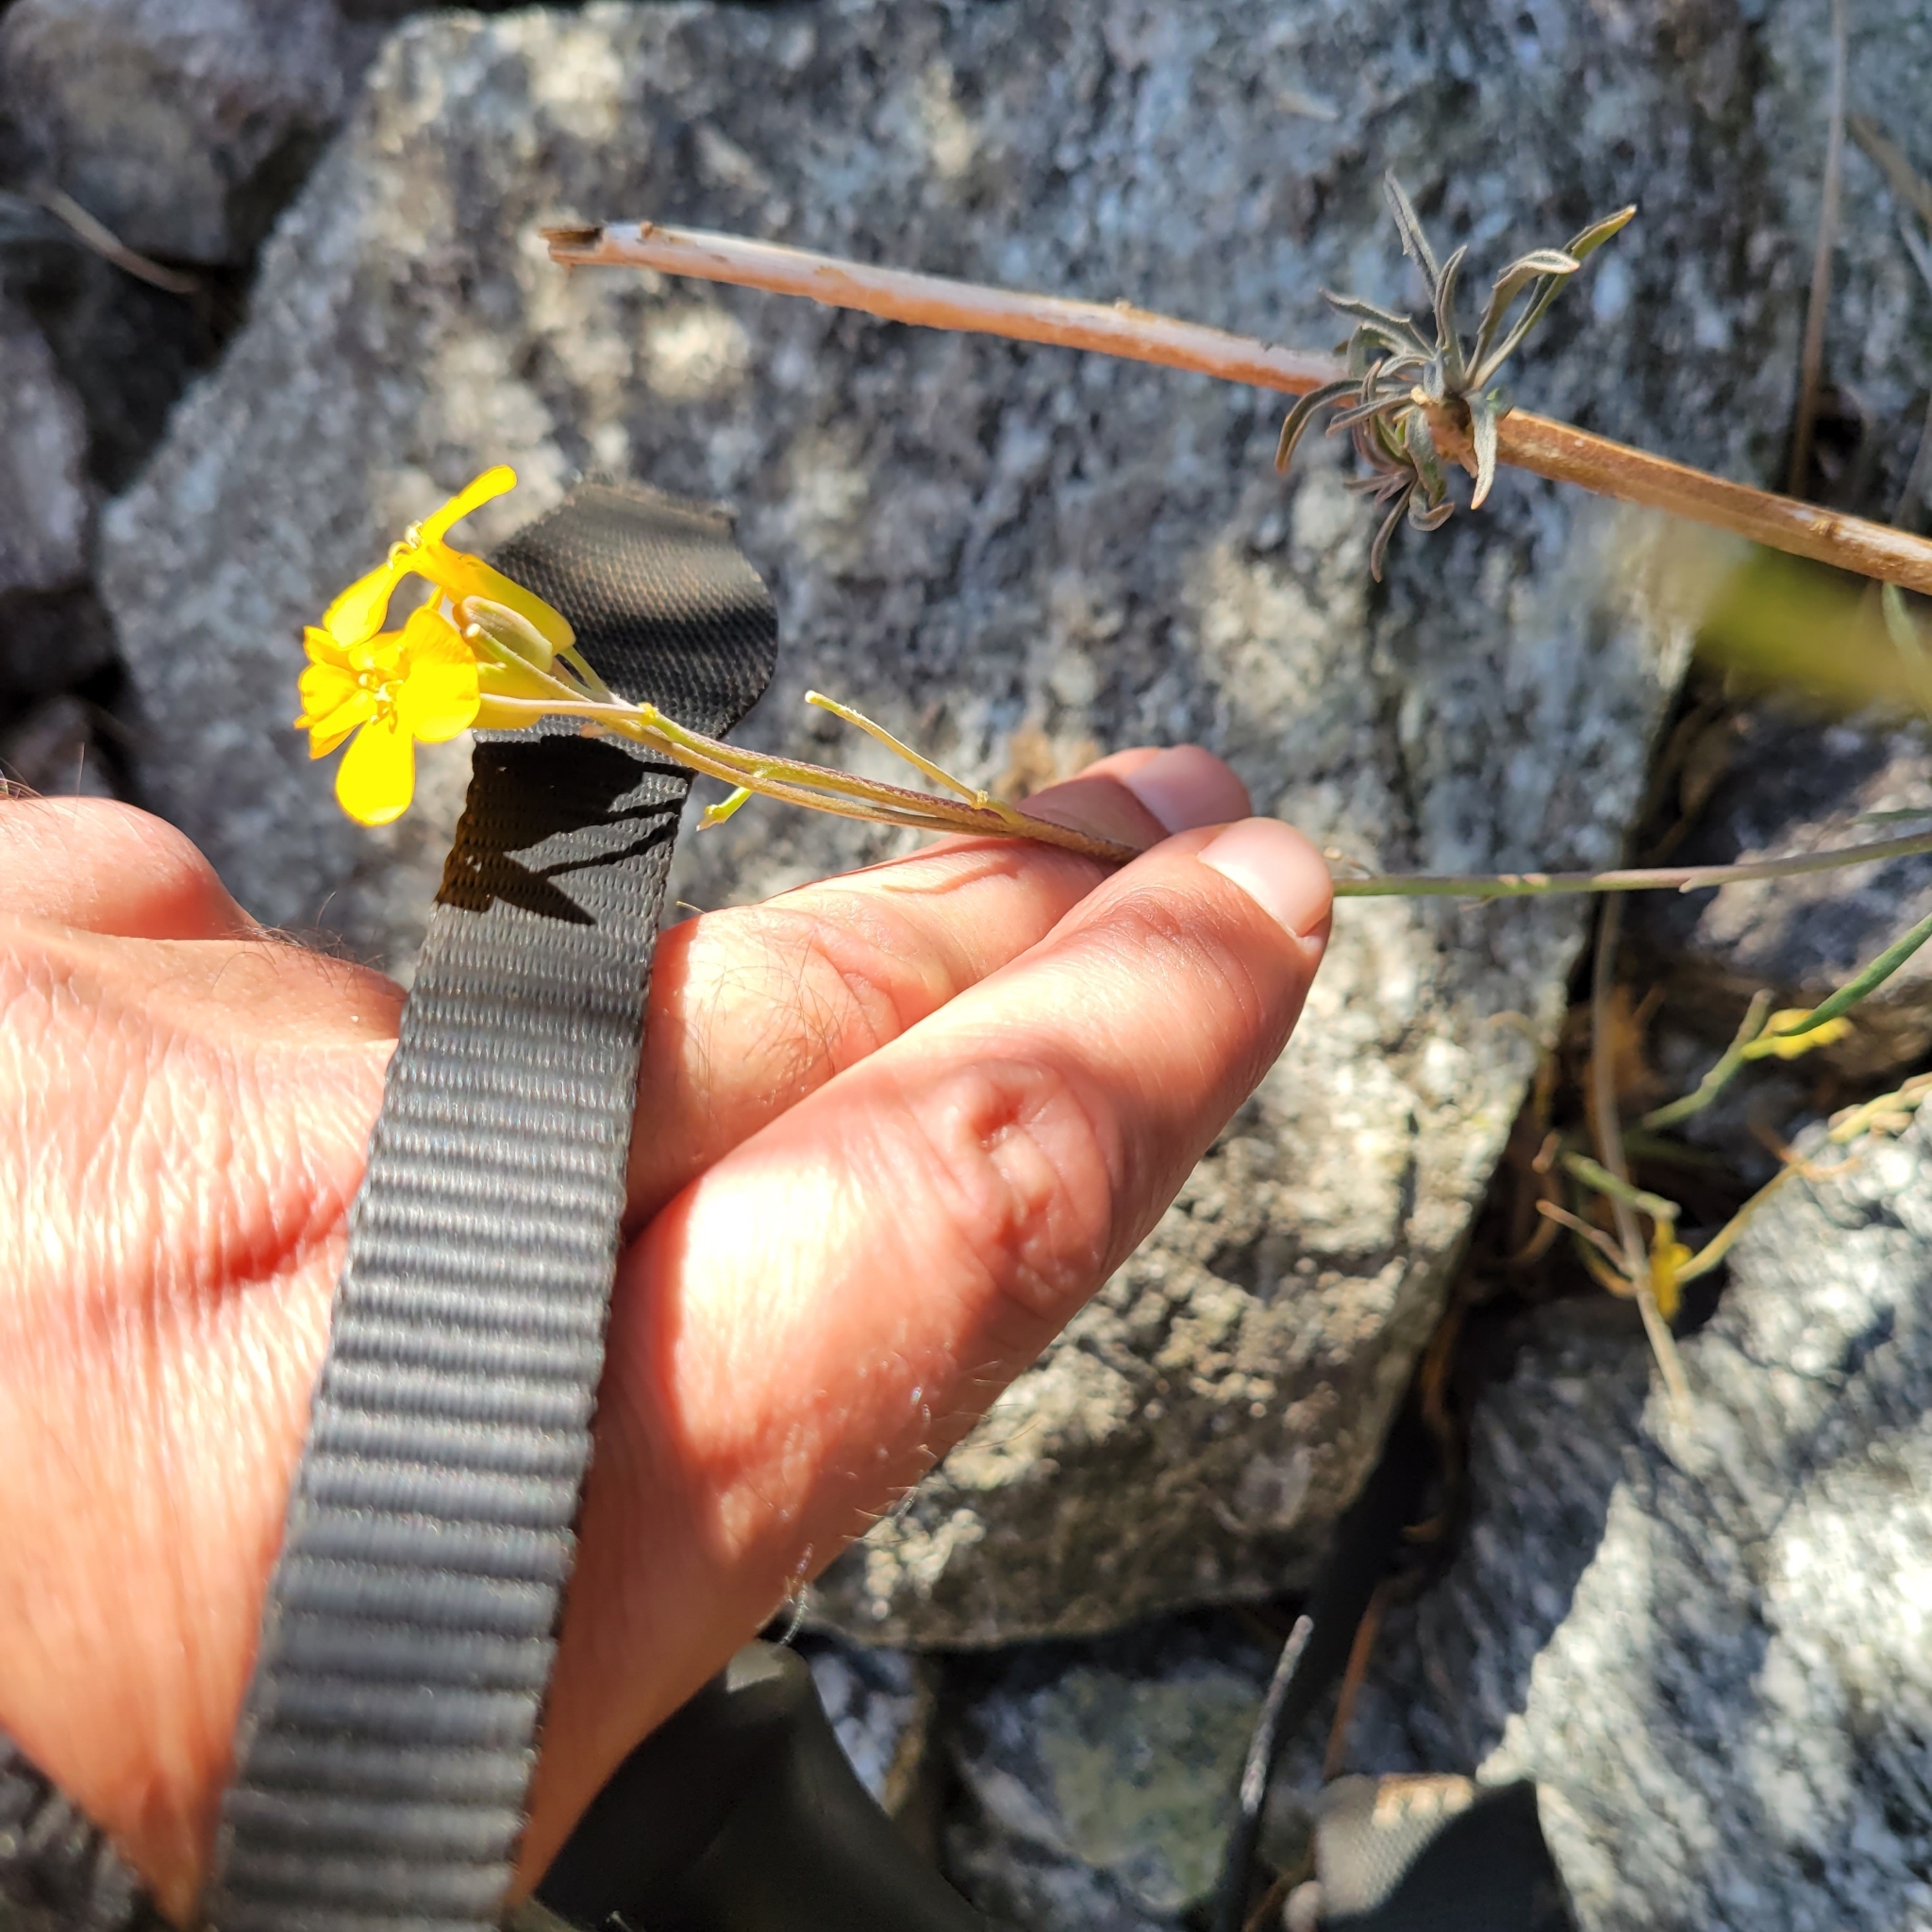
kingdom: Plantae
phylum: Tracheophyta
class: Magnoliopsida
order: Brassicales
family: Brassicaceae
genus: Erysimum
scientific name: Erysimum capitatum
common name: Western wallflower
